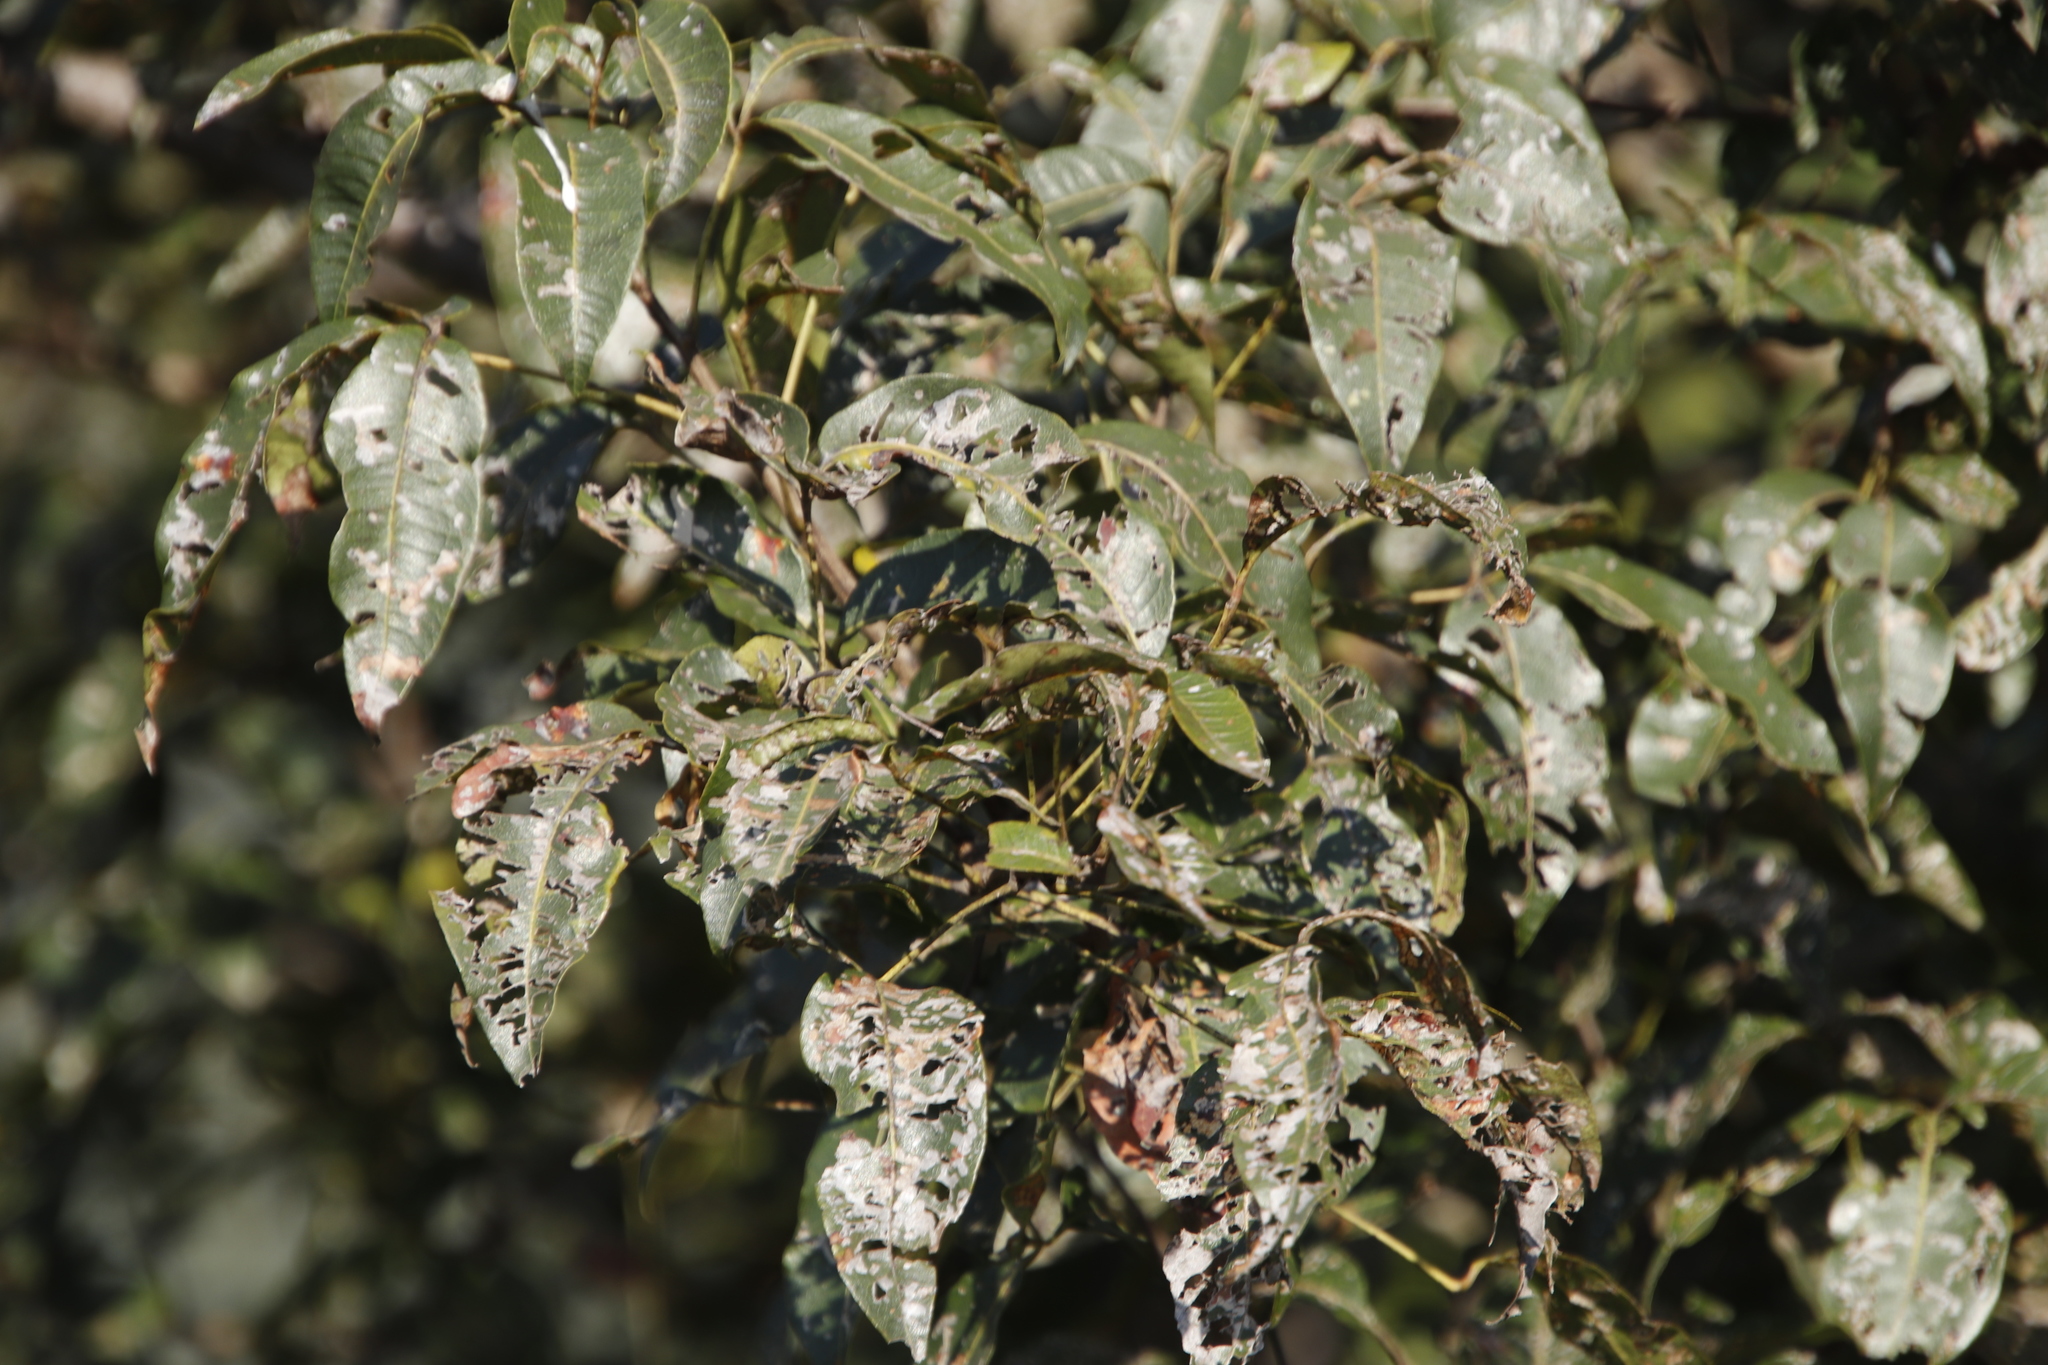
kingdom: Plantae
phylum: Tracheophyta
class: Magnoliopsida
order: Sapindales
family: Anacardiaceae
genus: Searsia
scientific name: Searsia chirindensis
